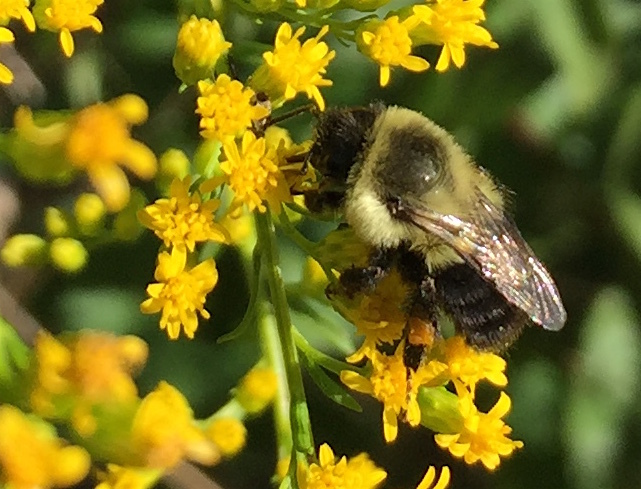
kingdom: Animalia
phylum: Arthropoda
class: Insecta
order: Hymenoptera
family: Apidae
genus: Bombus
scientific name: Bombus impatiens
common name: Common eastern bumble bee
